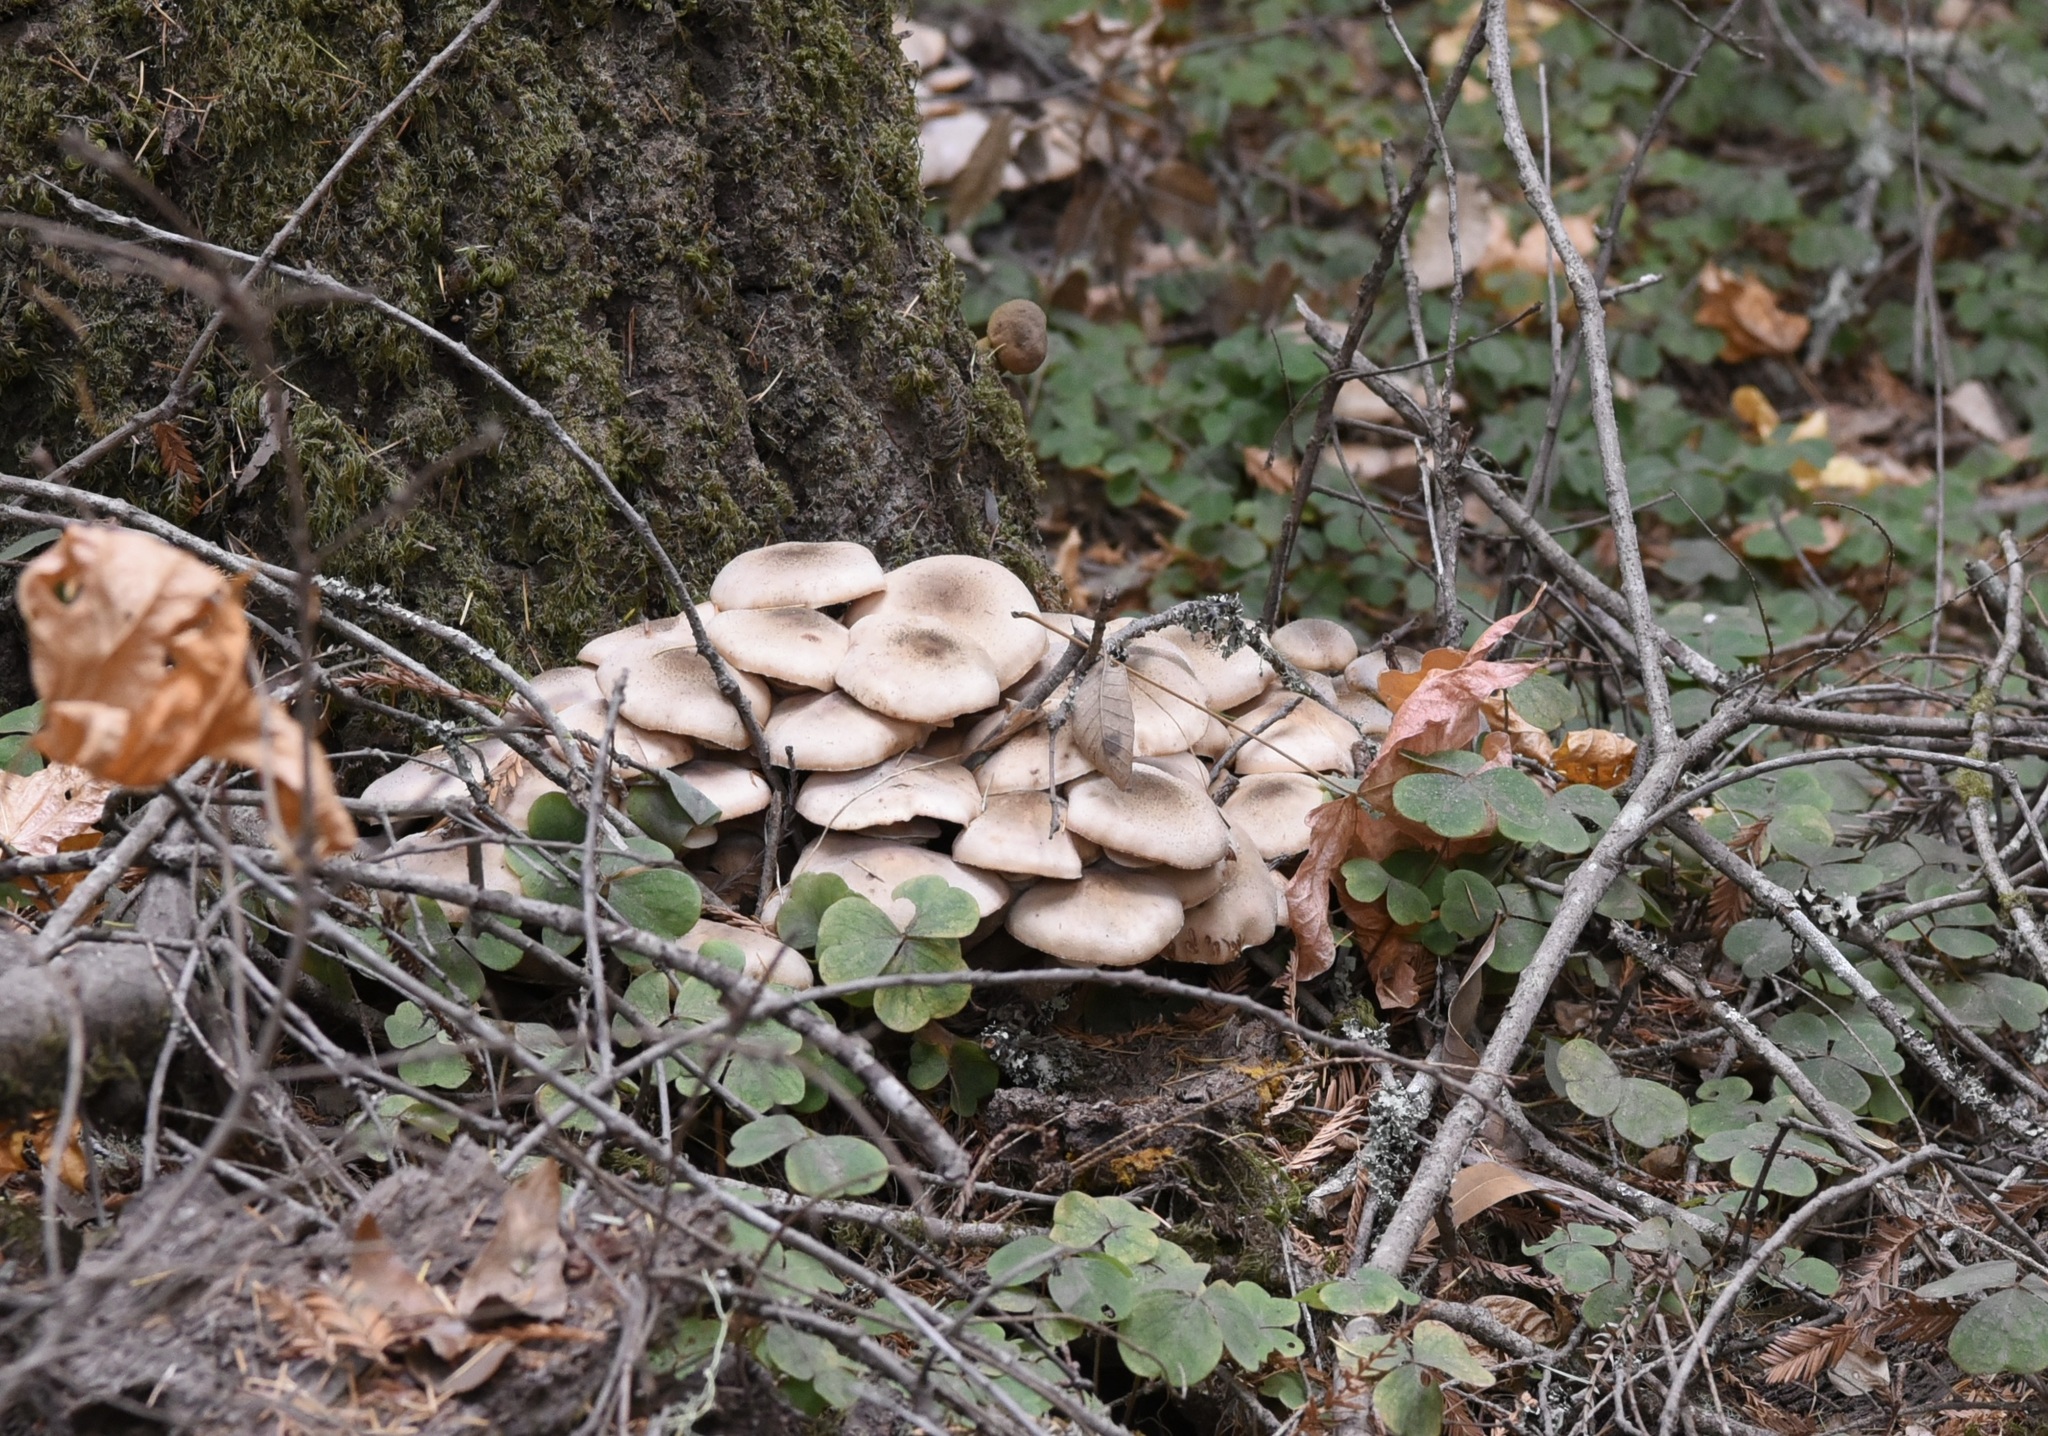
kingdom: Fungi
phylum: Basidiomycota
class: Agaricomycetes
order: Agaricales
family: Physalacriaceae
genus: Armillaria
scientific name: Armillaria mellea
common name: Honey fungus
